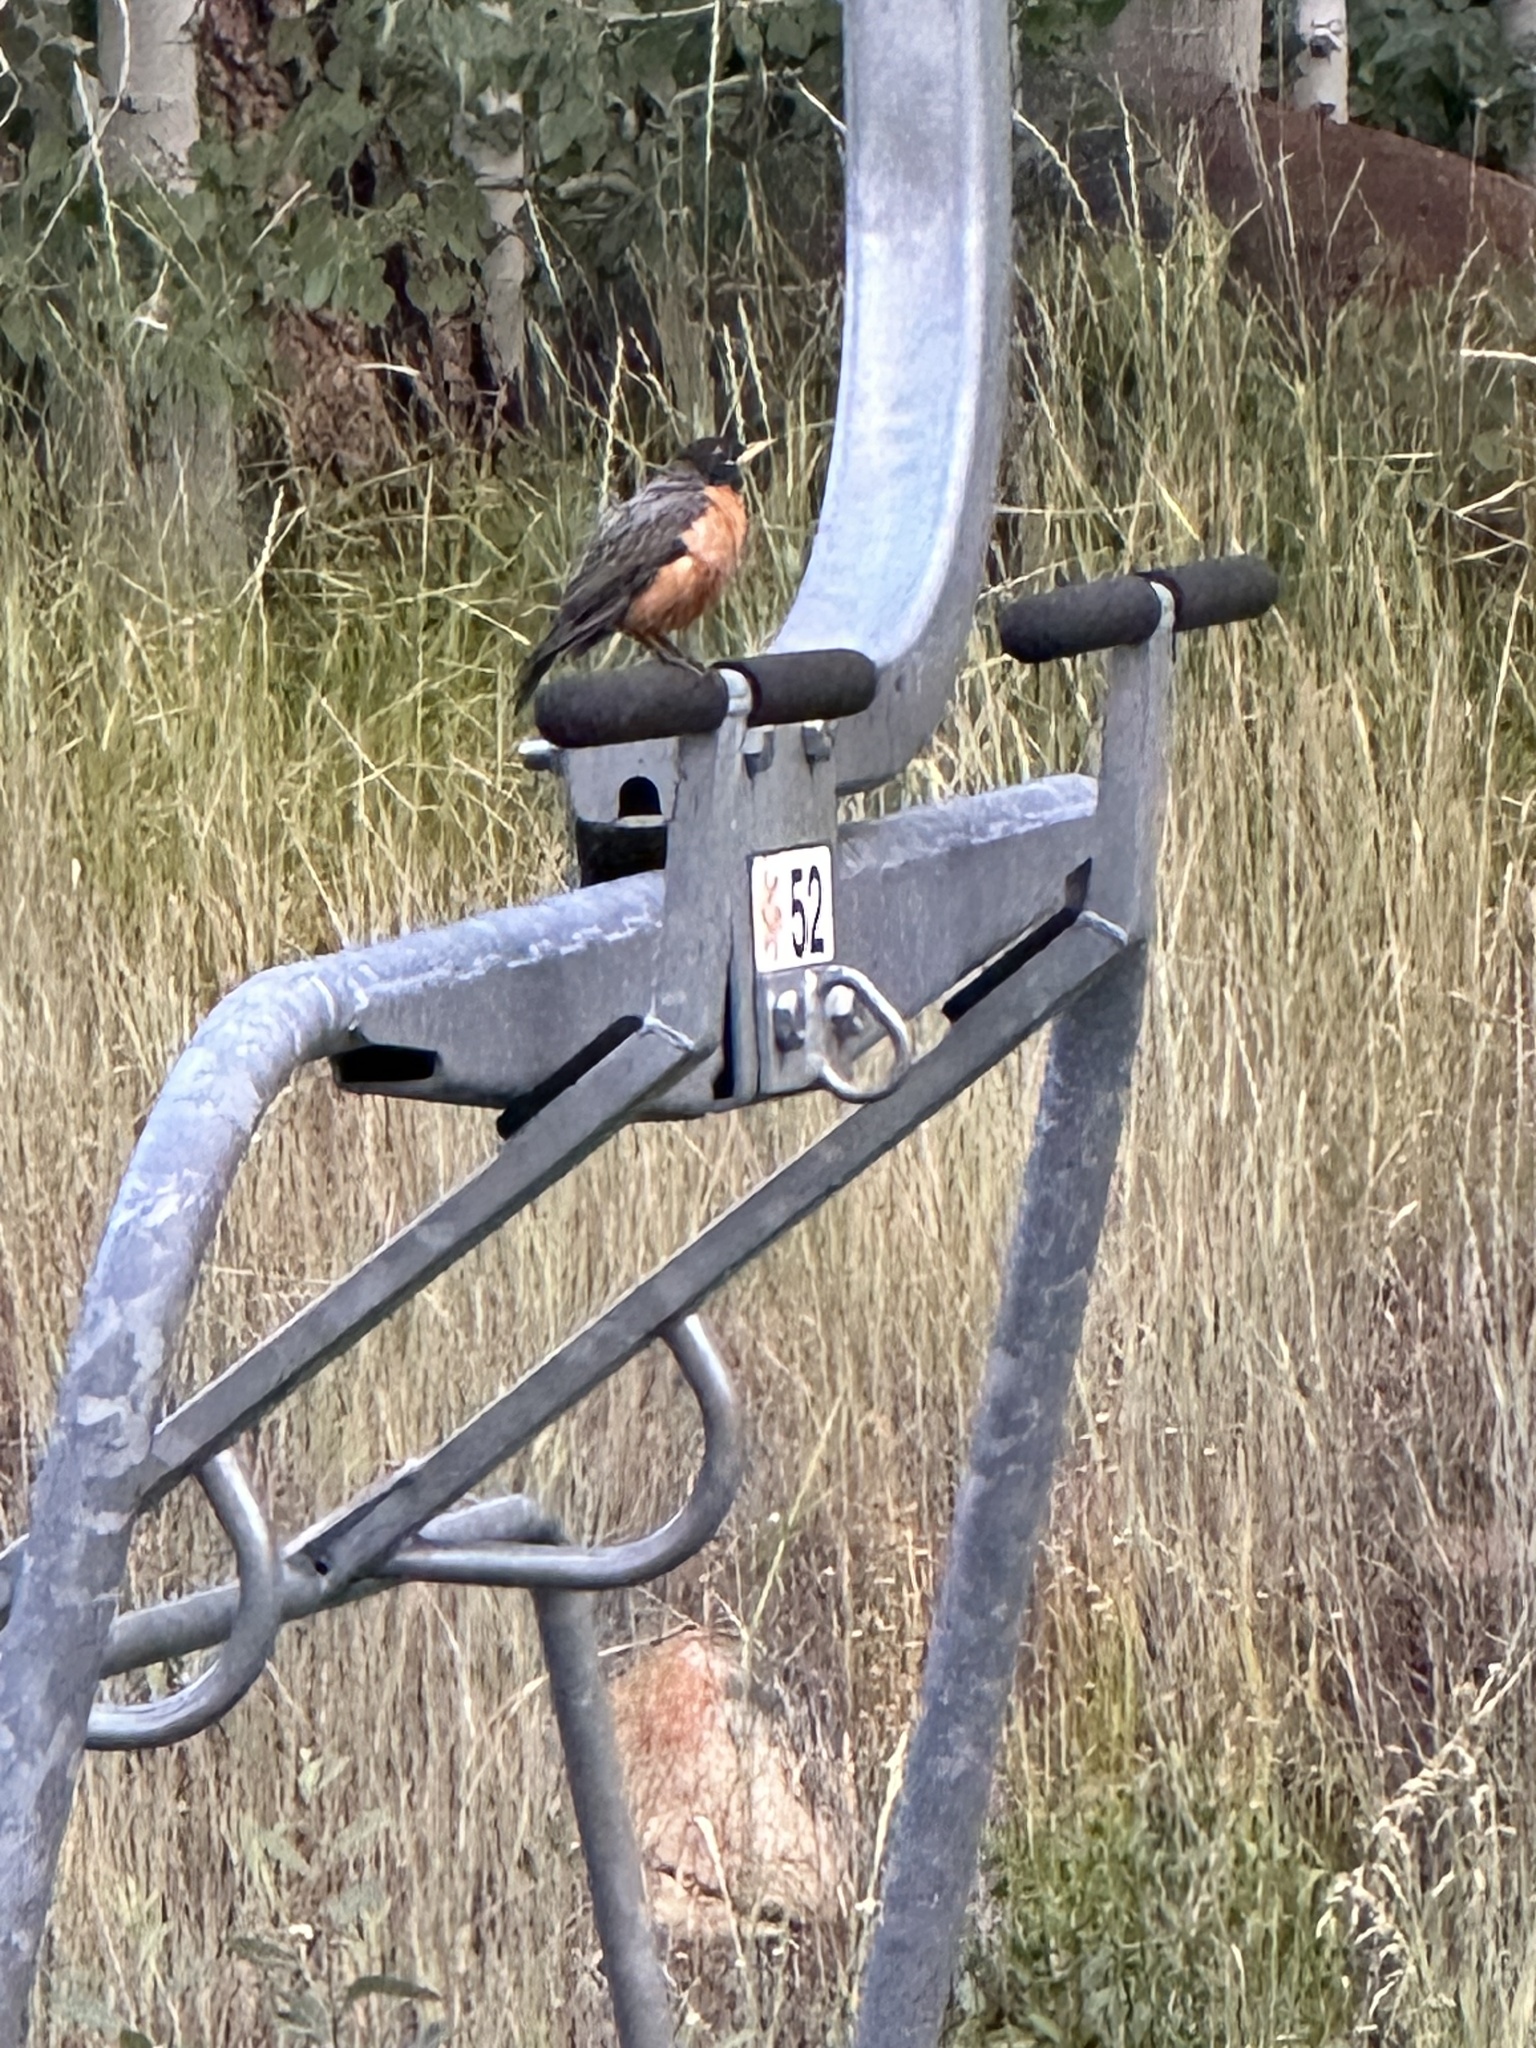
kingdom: Animalia
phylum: Chordata
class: Aves
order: Passeriformes
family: Turdidae
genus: Turdus
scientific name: Turdus migratorius
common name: American robin
